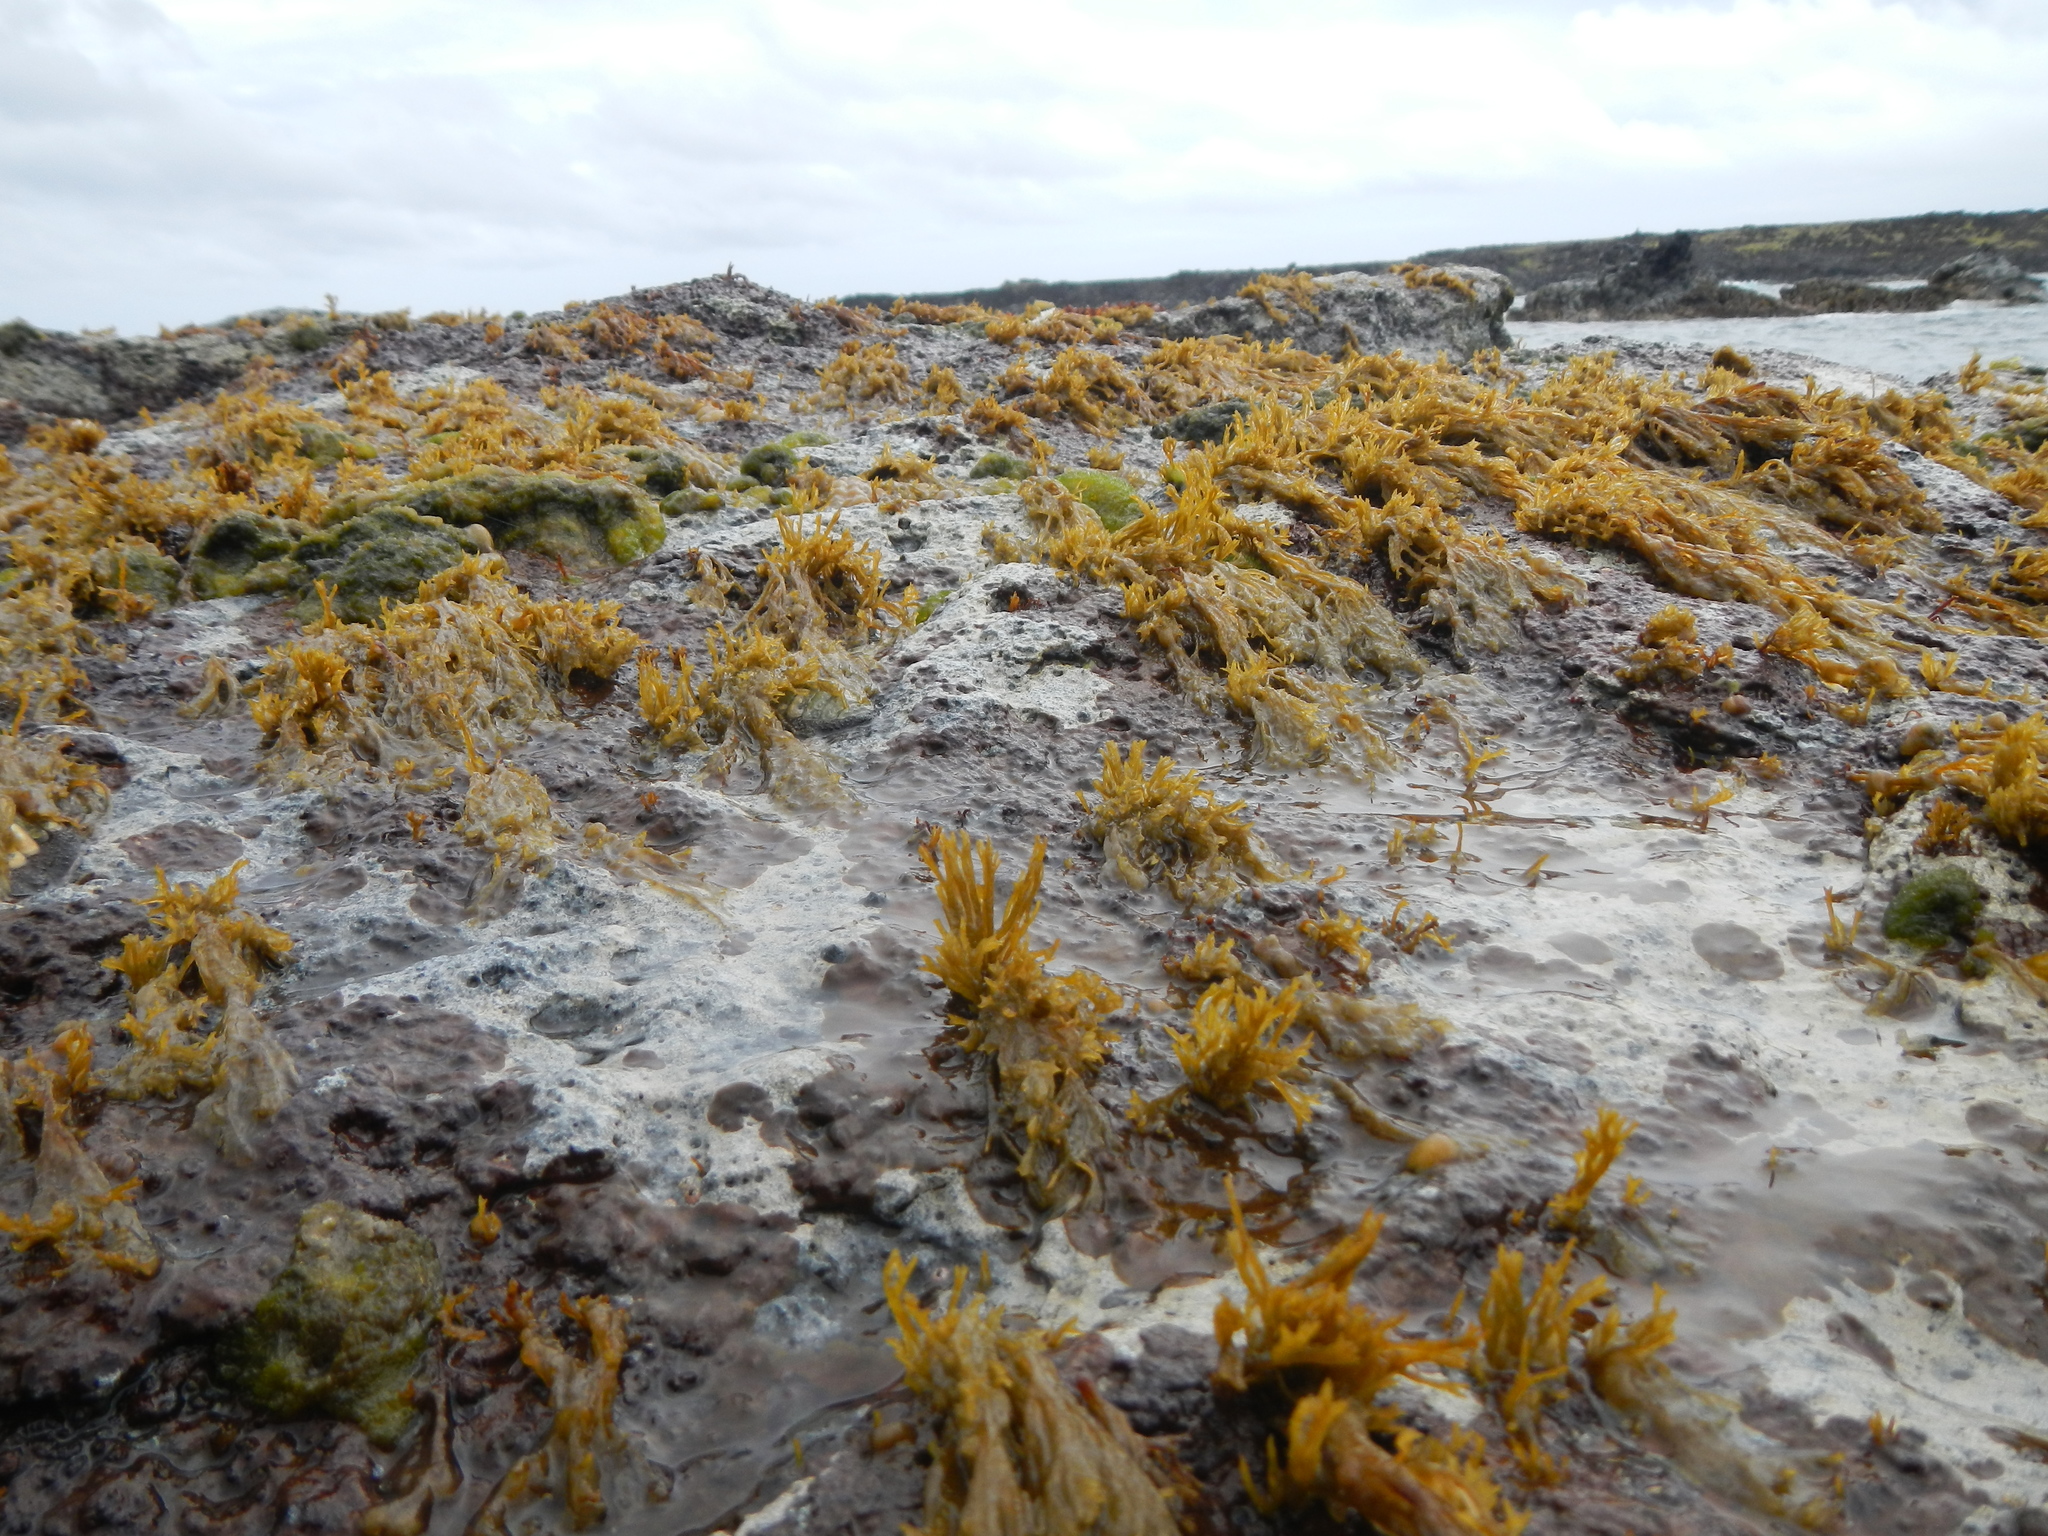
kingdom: Chromista
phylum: Ochrophyta
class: Phaeophyceae
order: Scytosiphonales
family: Scytosiphonaceae
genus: Chnoospora
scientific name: Chnoospora minima
